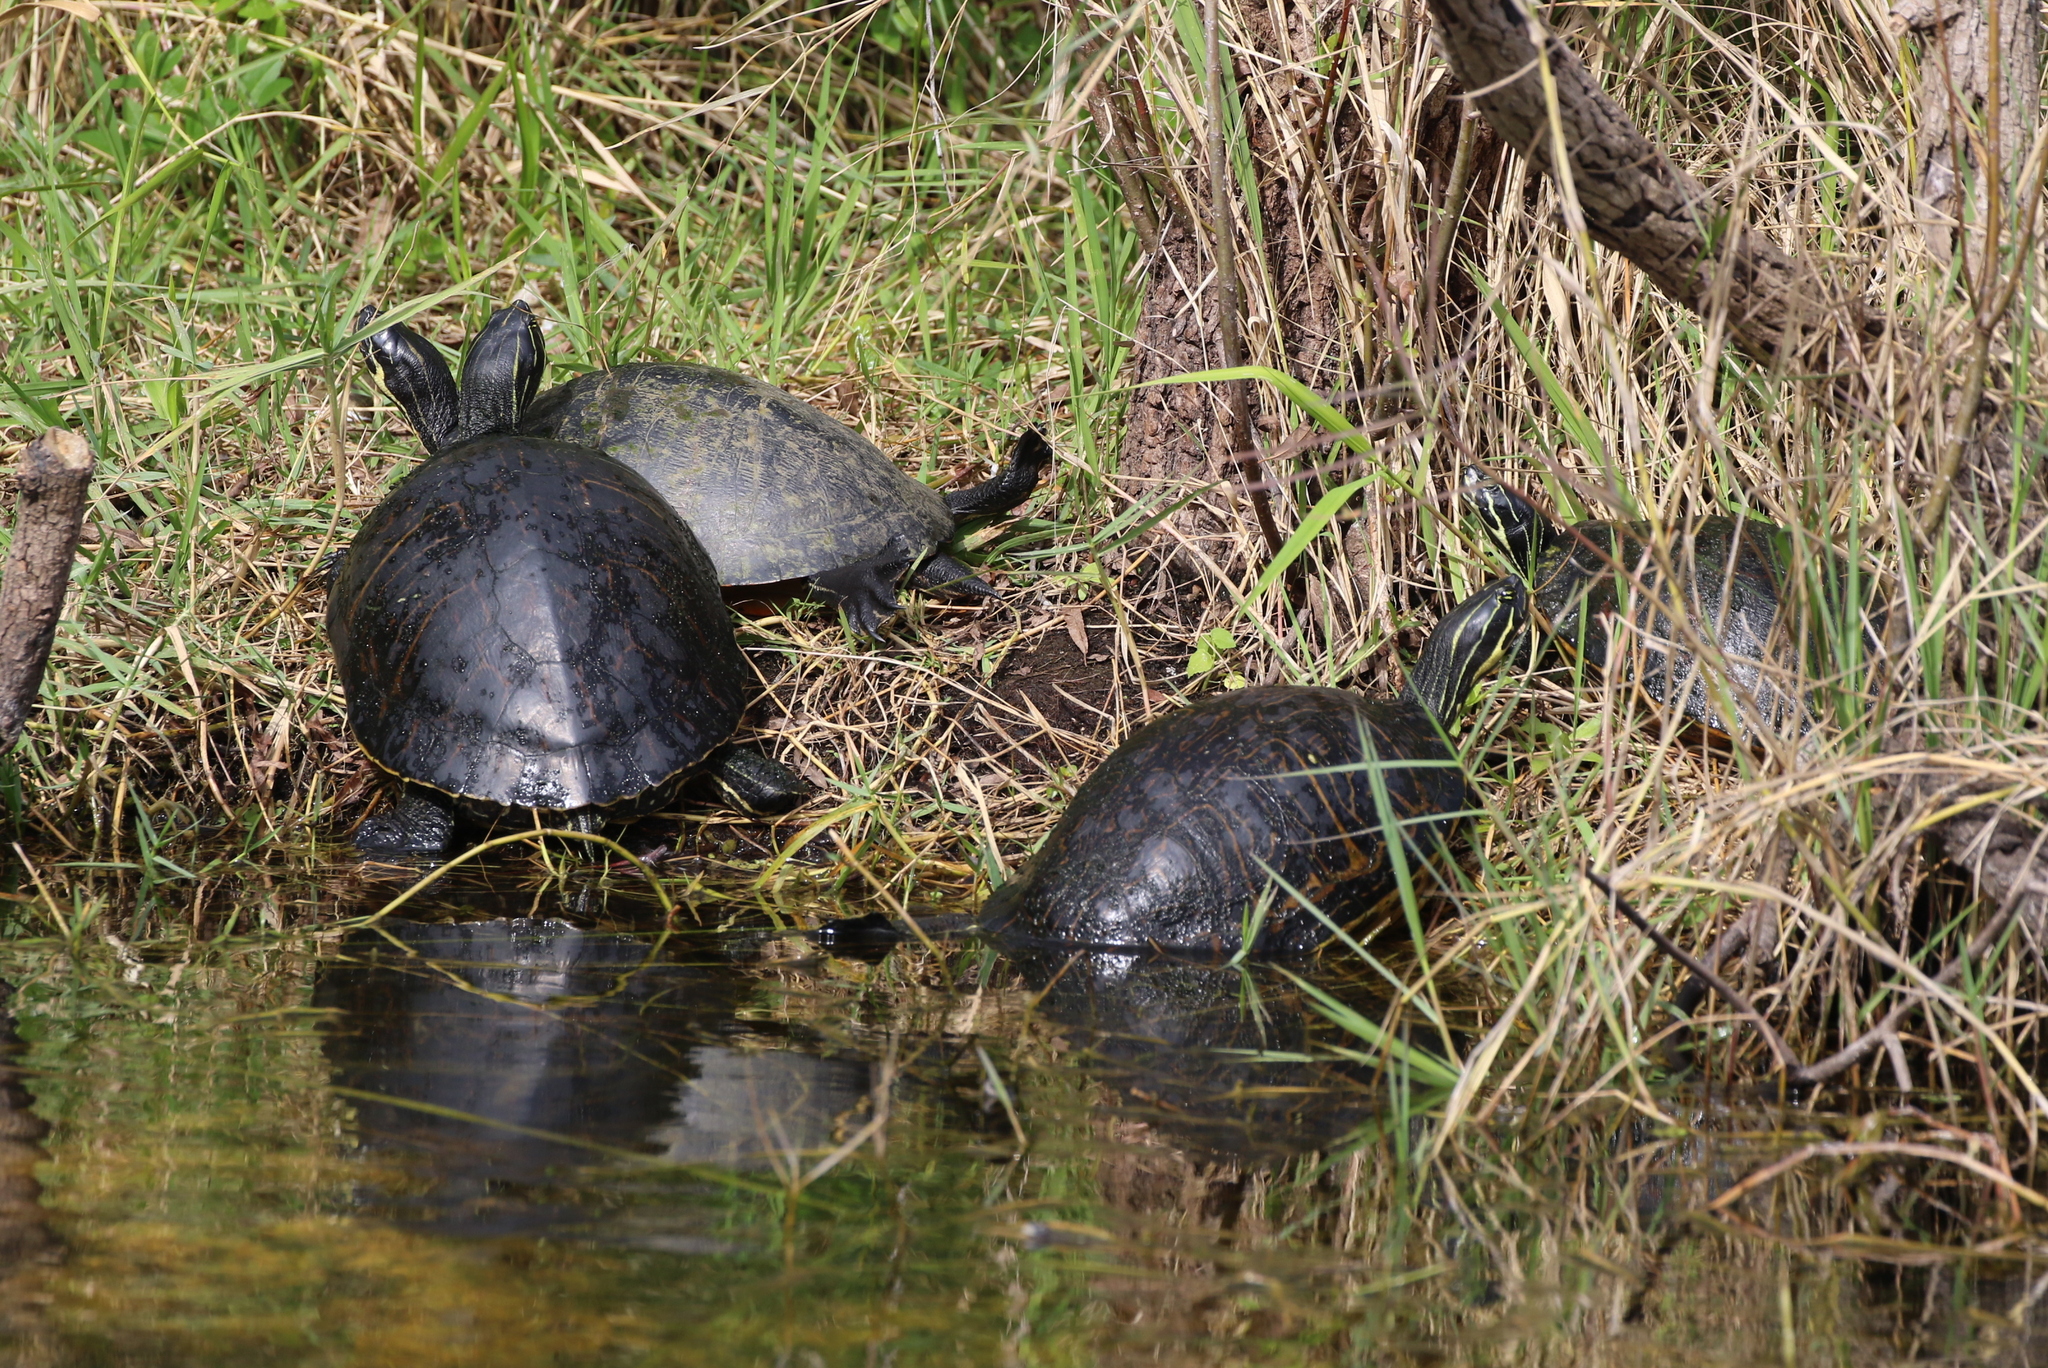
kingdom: Animalia
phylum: Chordata
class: Testudines
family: Emydidae
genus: Pseudemys
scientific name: Pseudemys peninsularis
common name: Peninsula cooter
